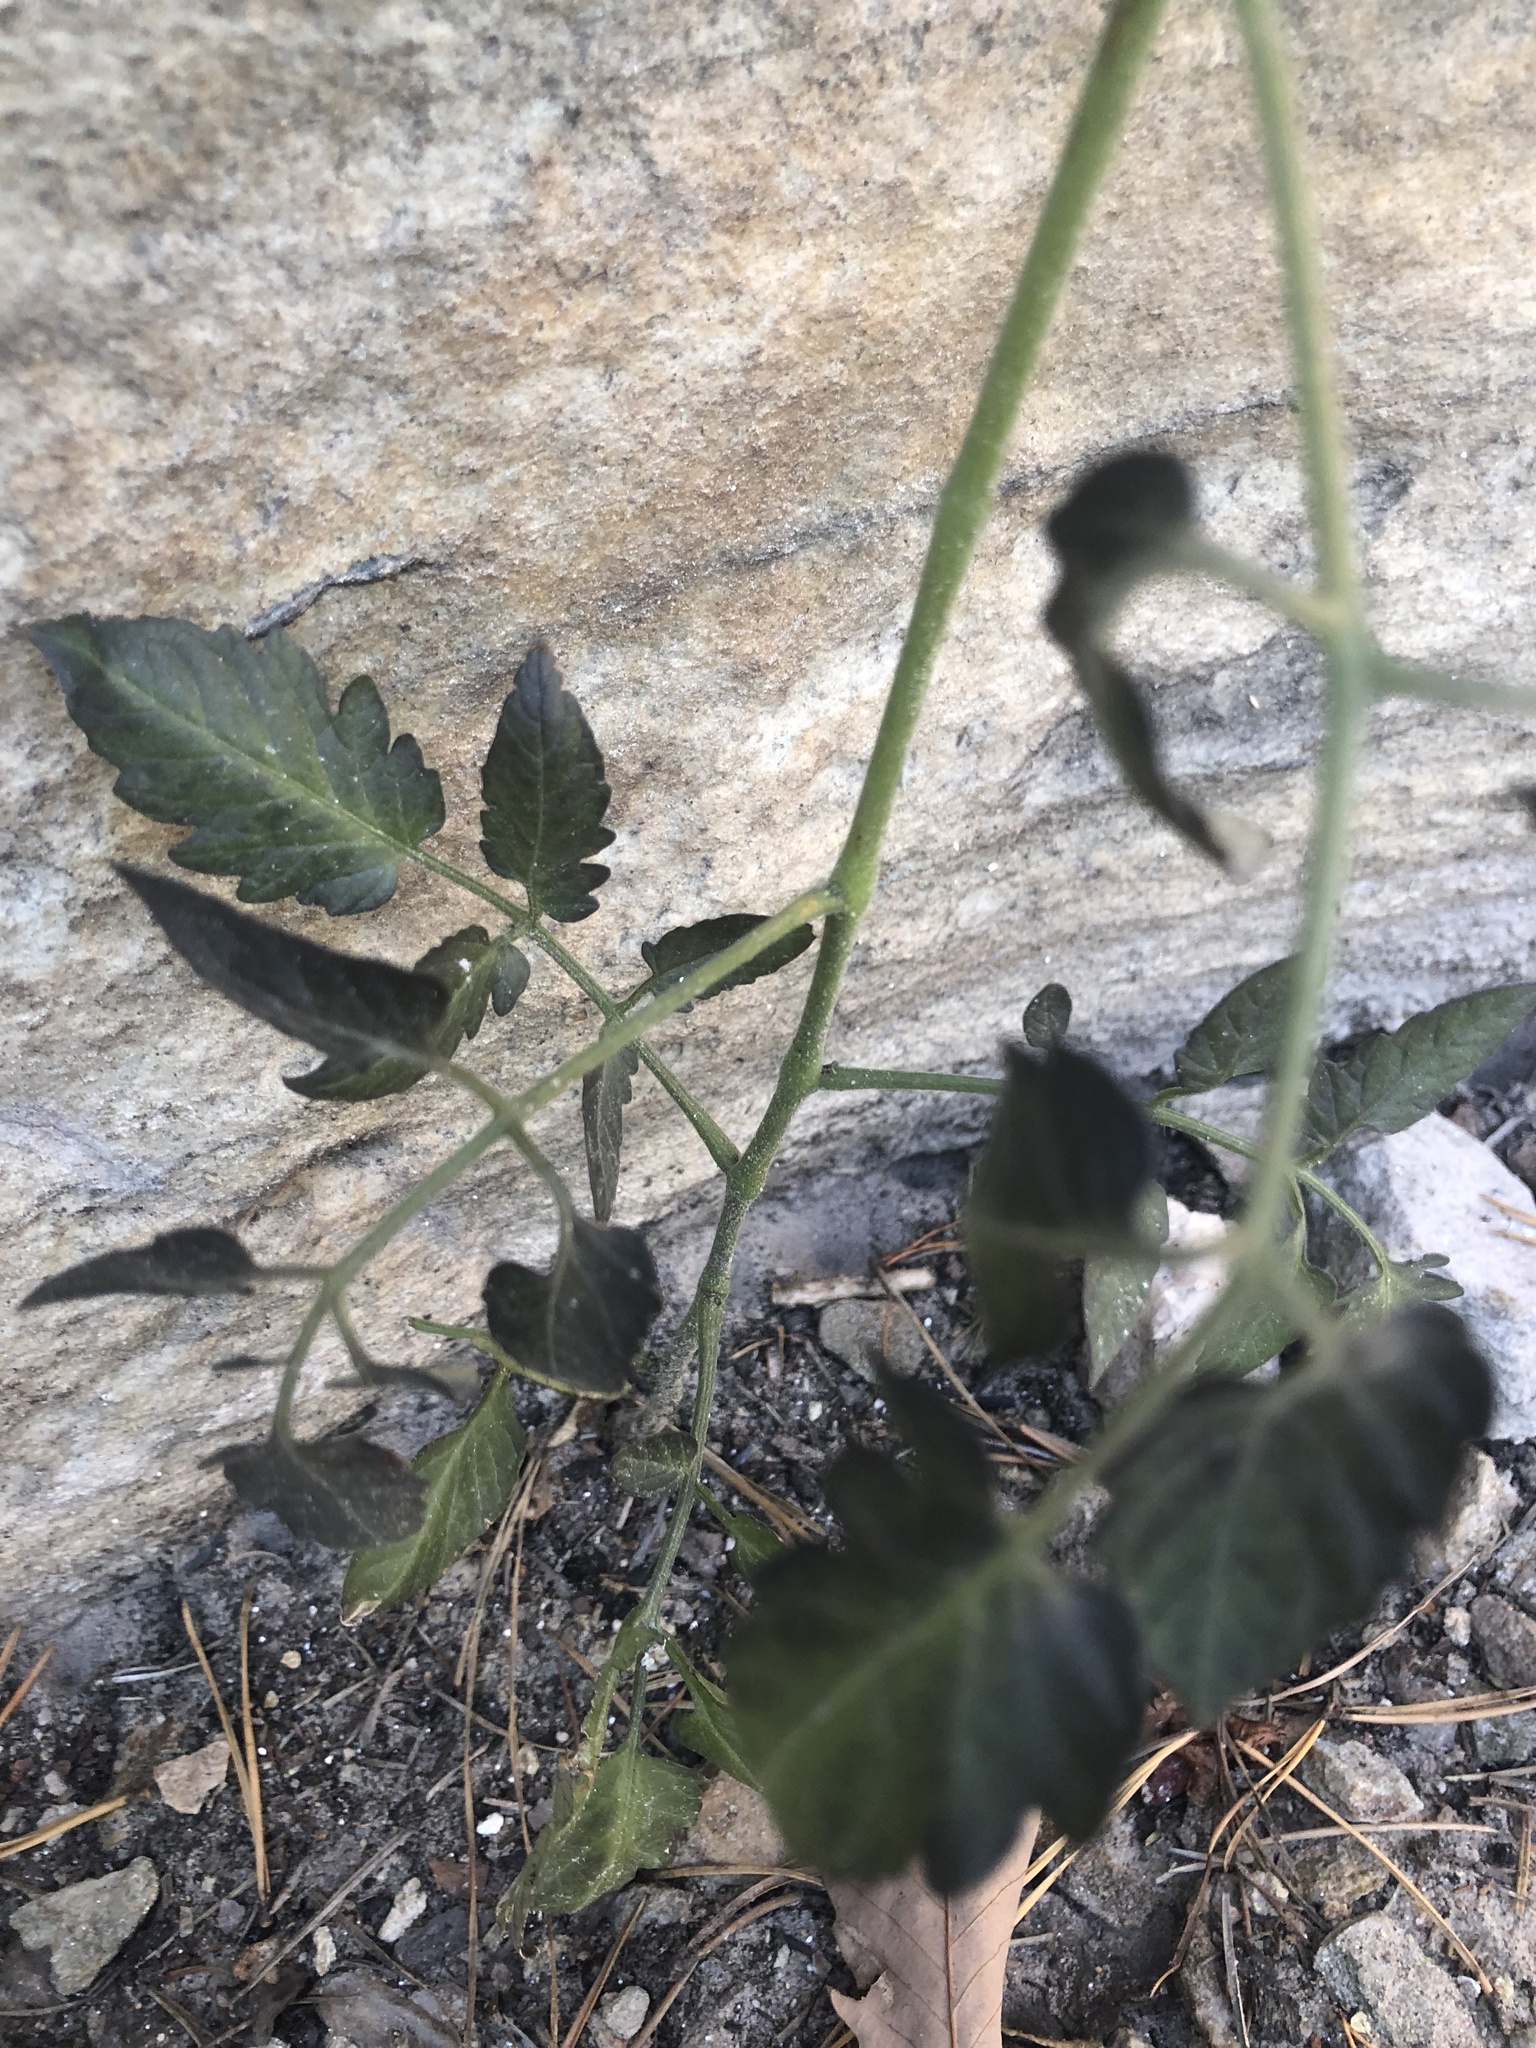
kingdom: Plantae
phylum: Tracheophyta
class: Magnoliopsida
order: Solanales
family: Solanaceae
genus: Solanum
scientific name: Solanum lycopersicum
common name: Garden tomato
